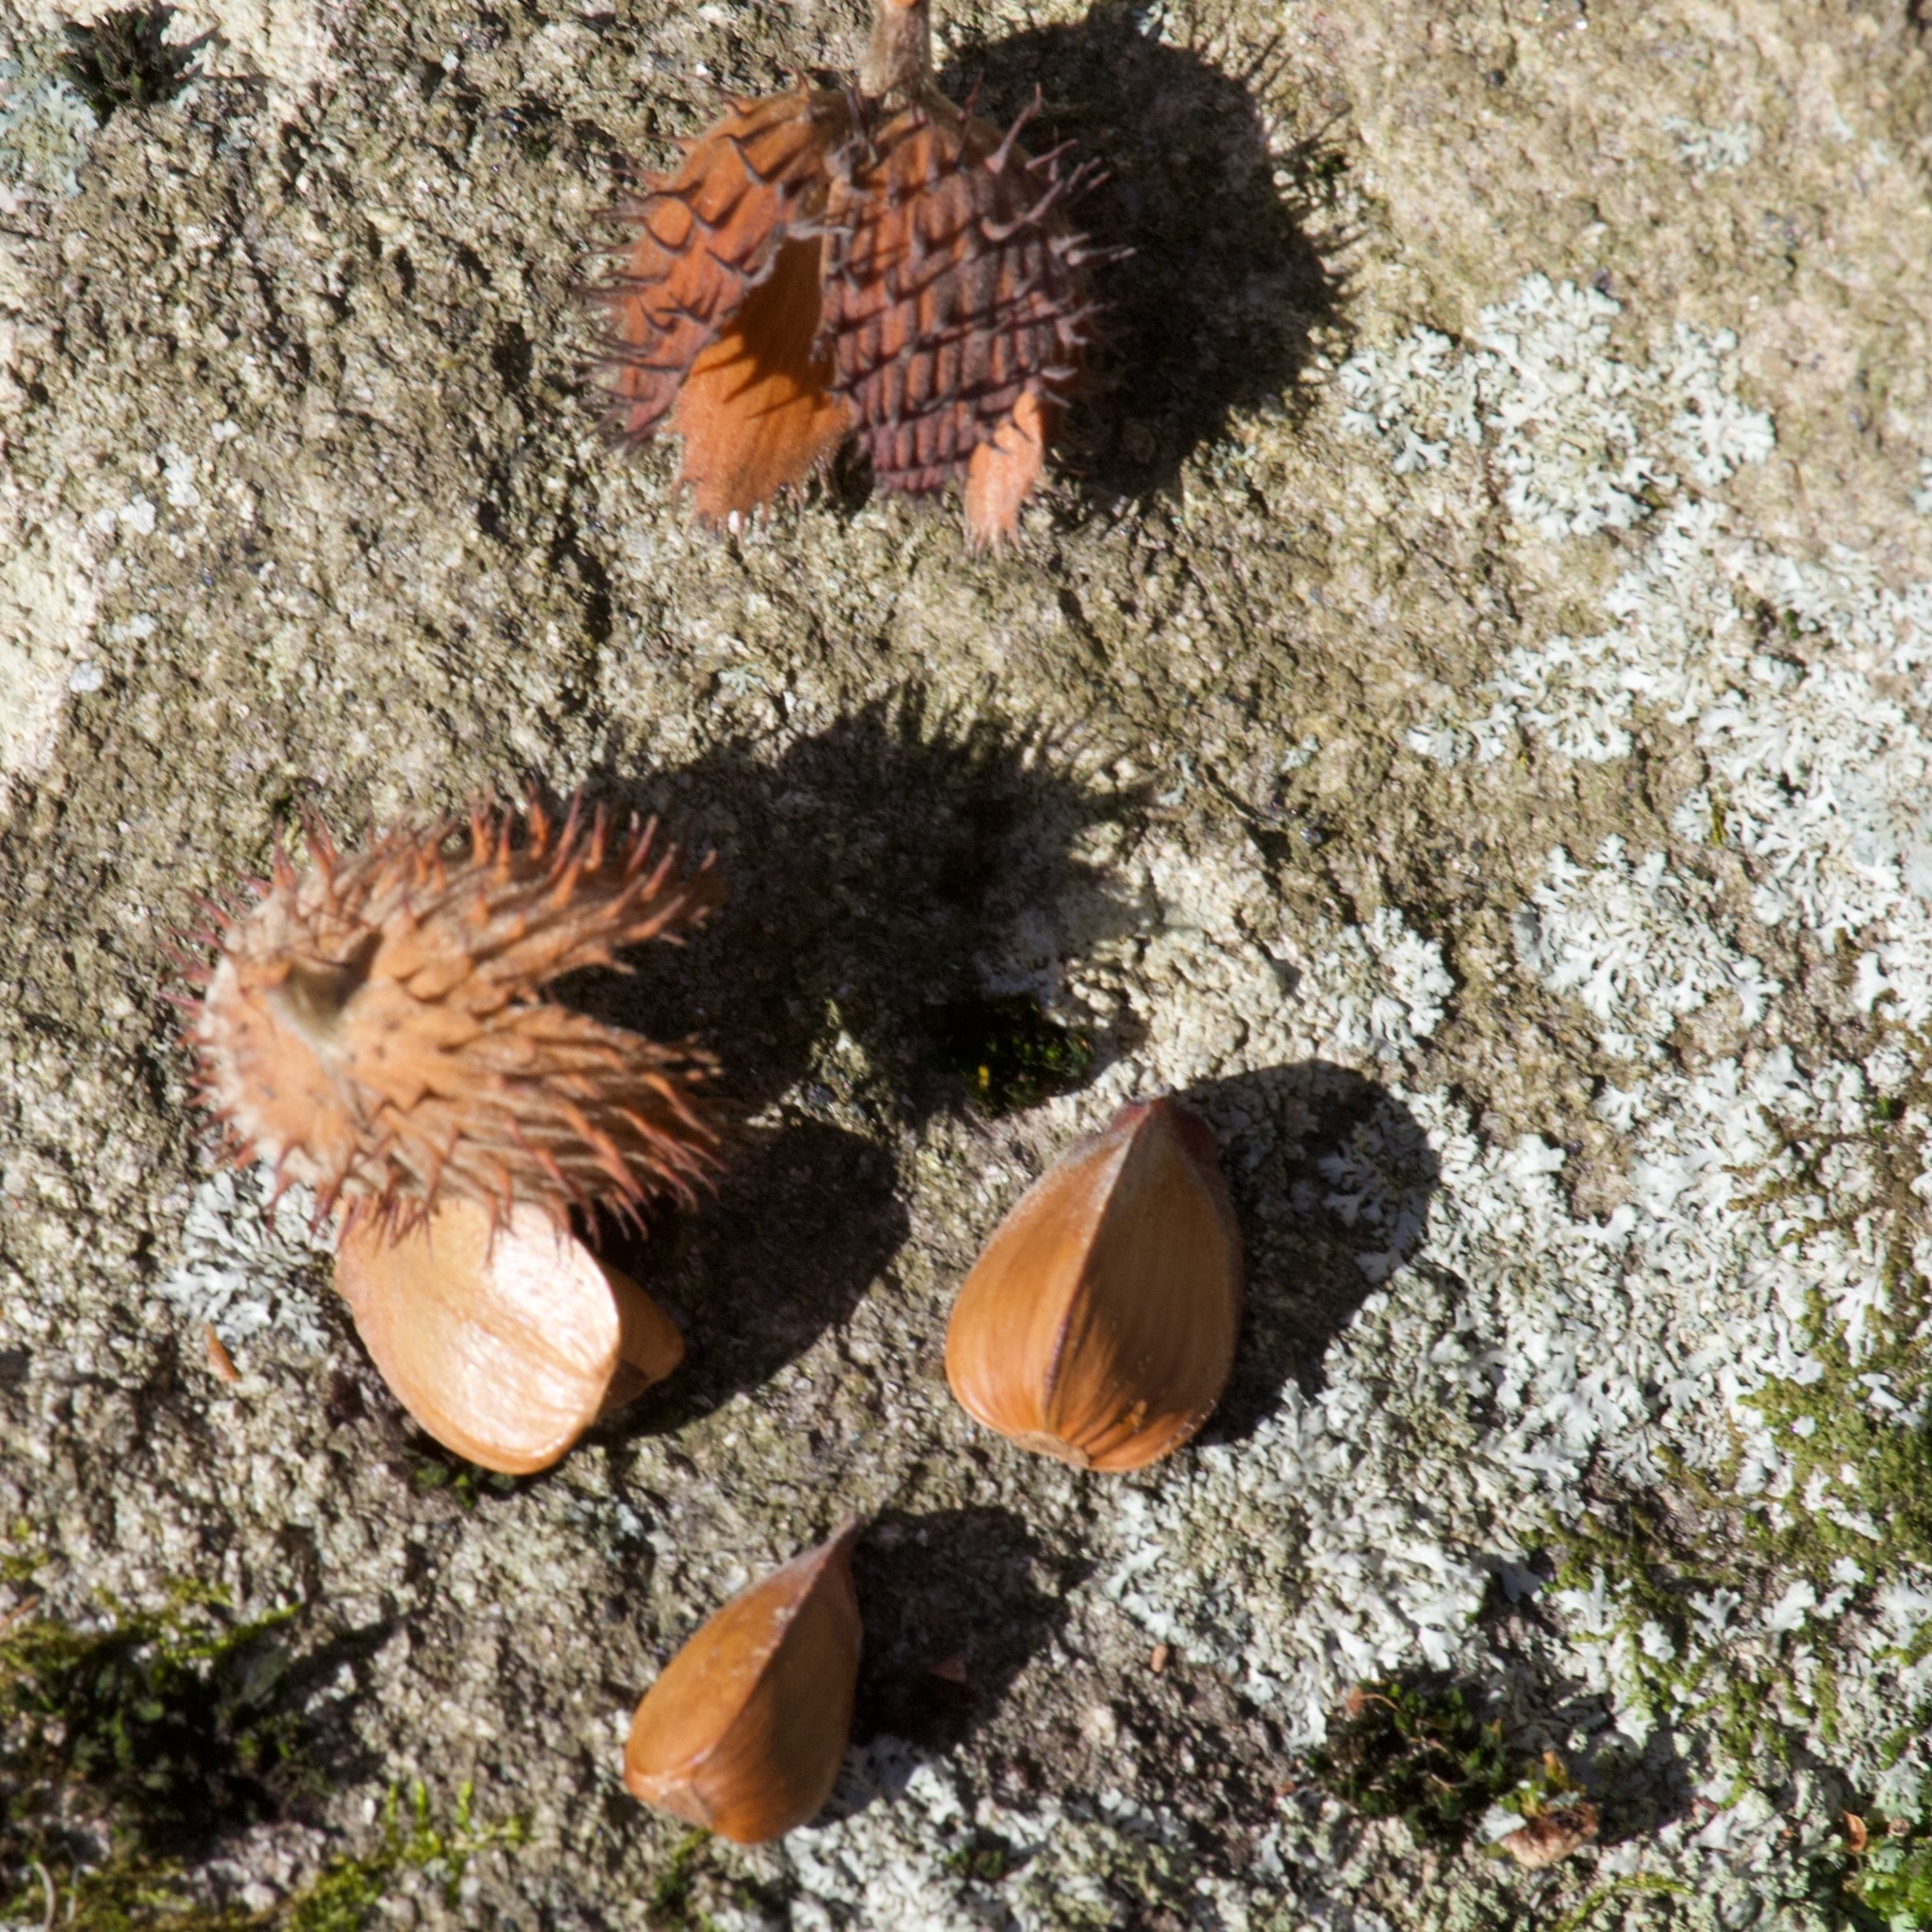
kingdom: Plantae
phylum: Tracheophyta
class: Magnoliopsida
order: Fagales
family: Fagaceae
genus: Fagus
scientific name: Fagus grandifolia
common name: American beech
